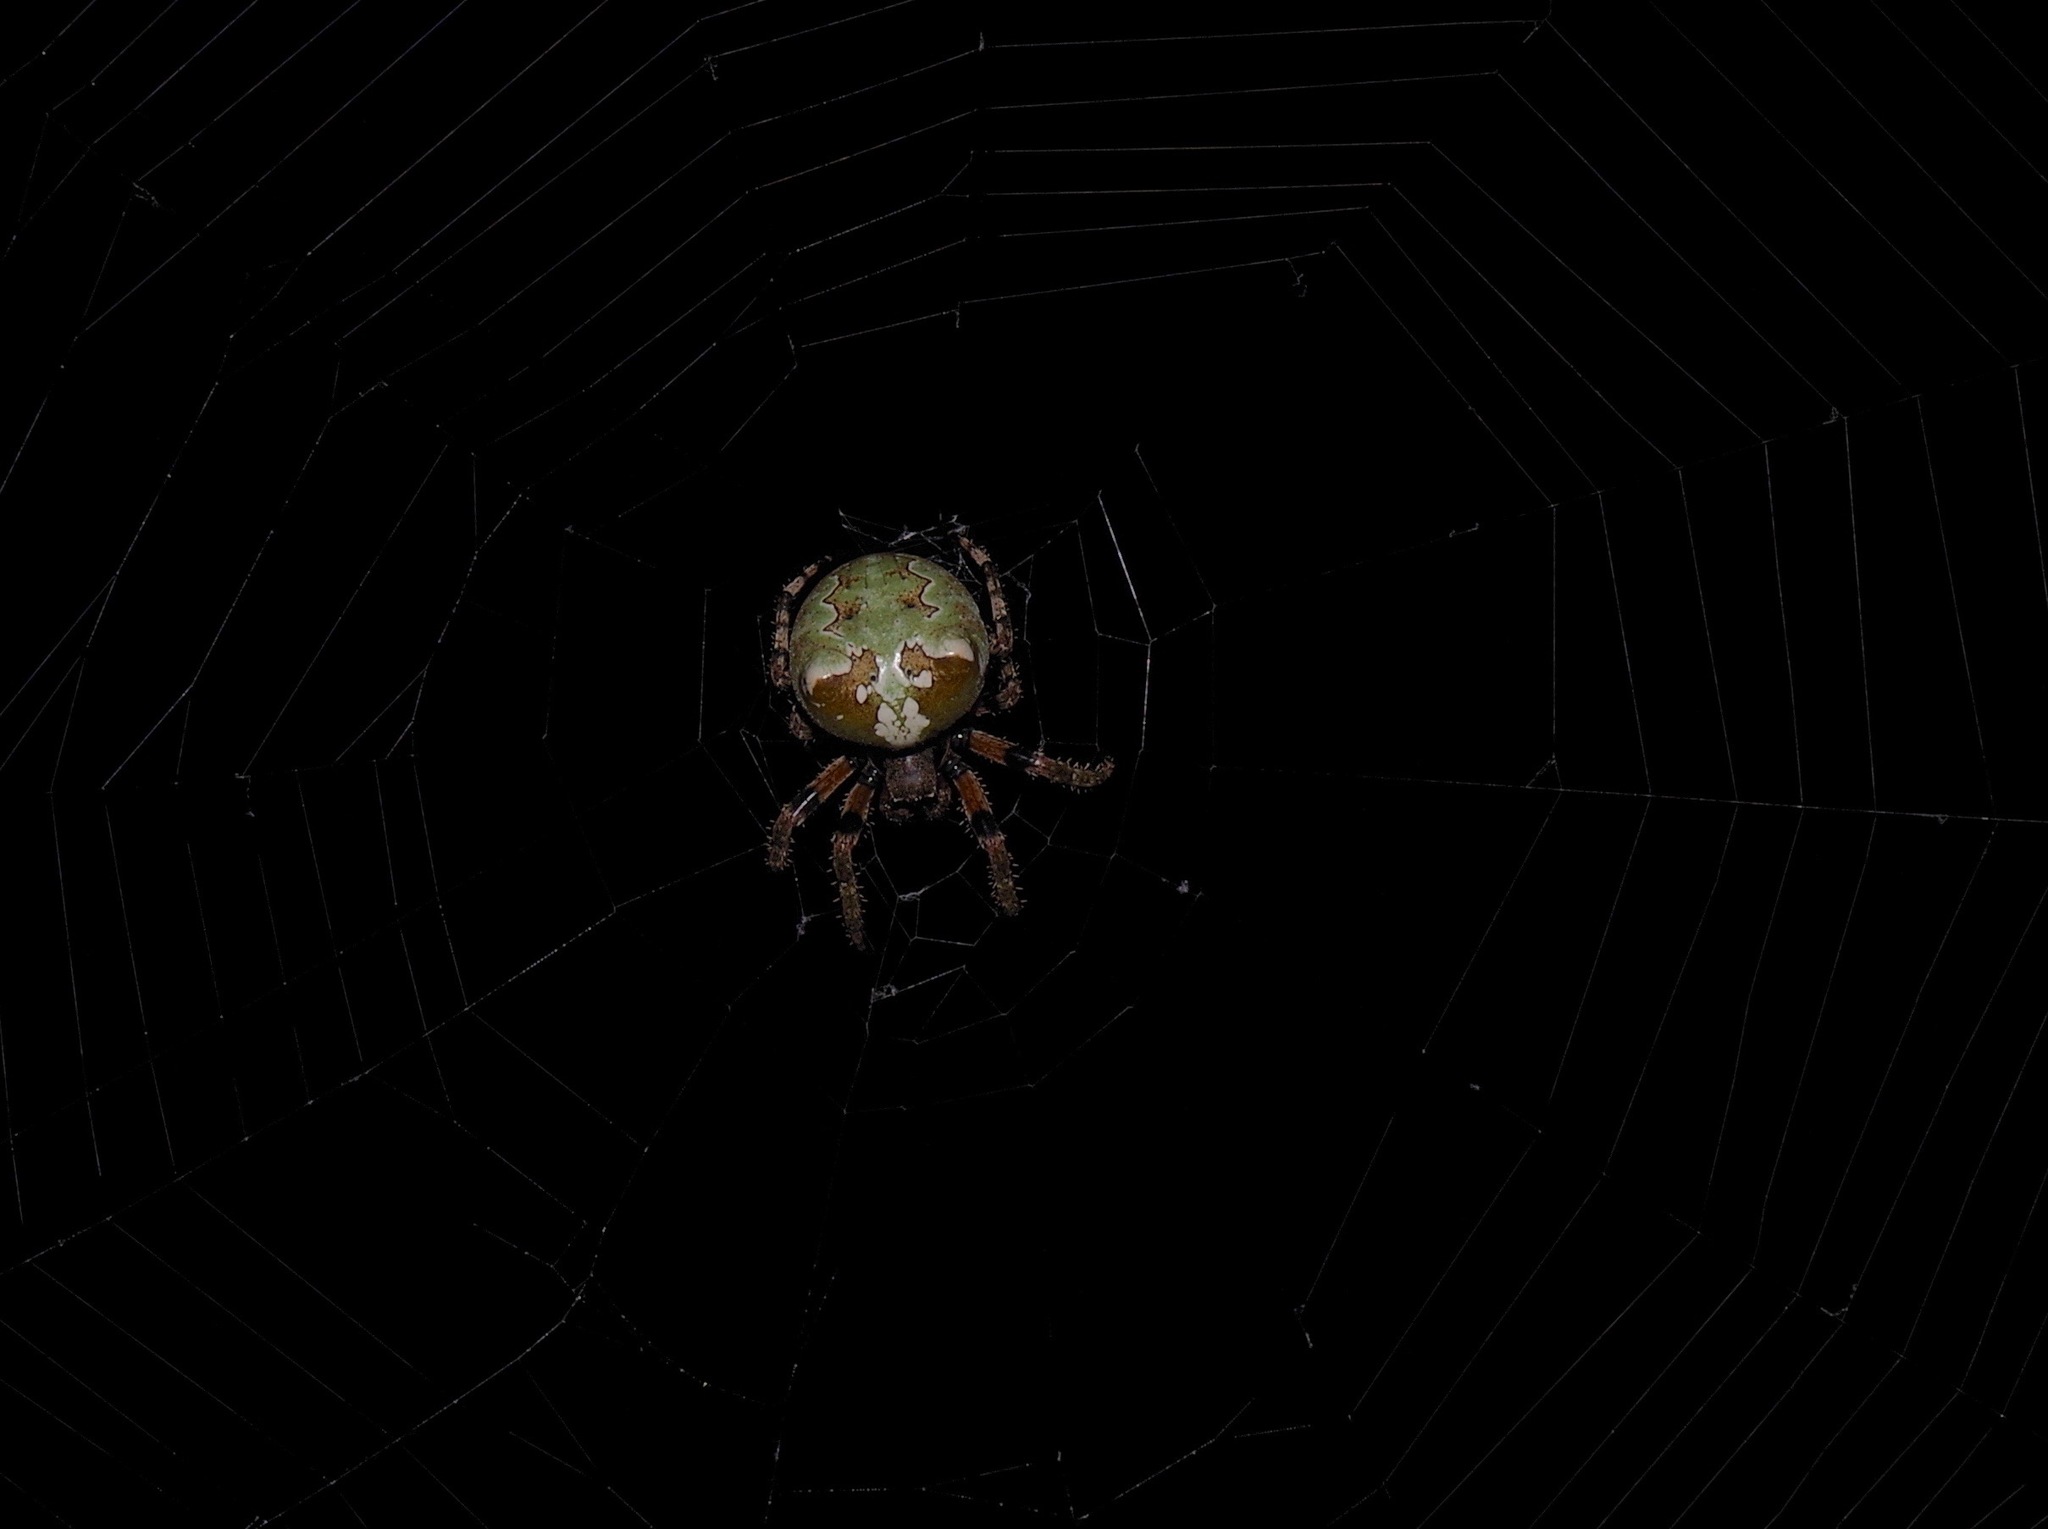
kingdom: Animalia
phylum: Arthropoda
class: Arachnida
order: Araneae
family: Araneidae
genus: Araneus
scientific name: Araneus bicentenarius
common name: Giant lichen orbweaver
